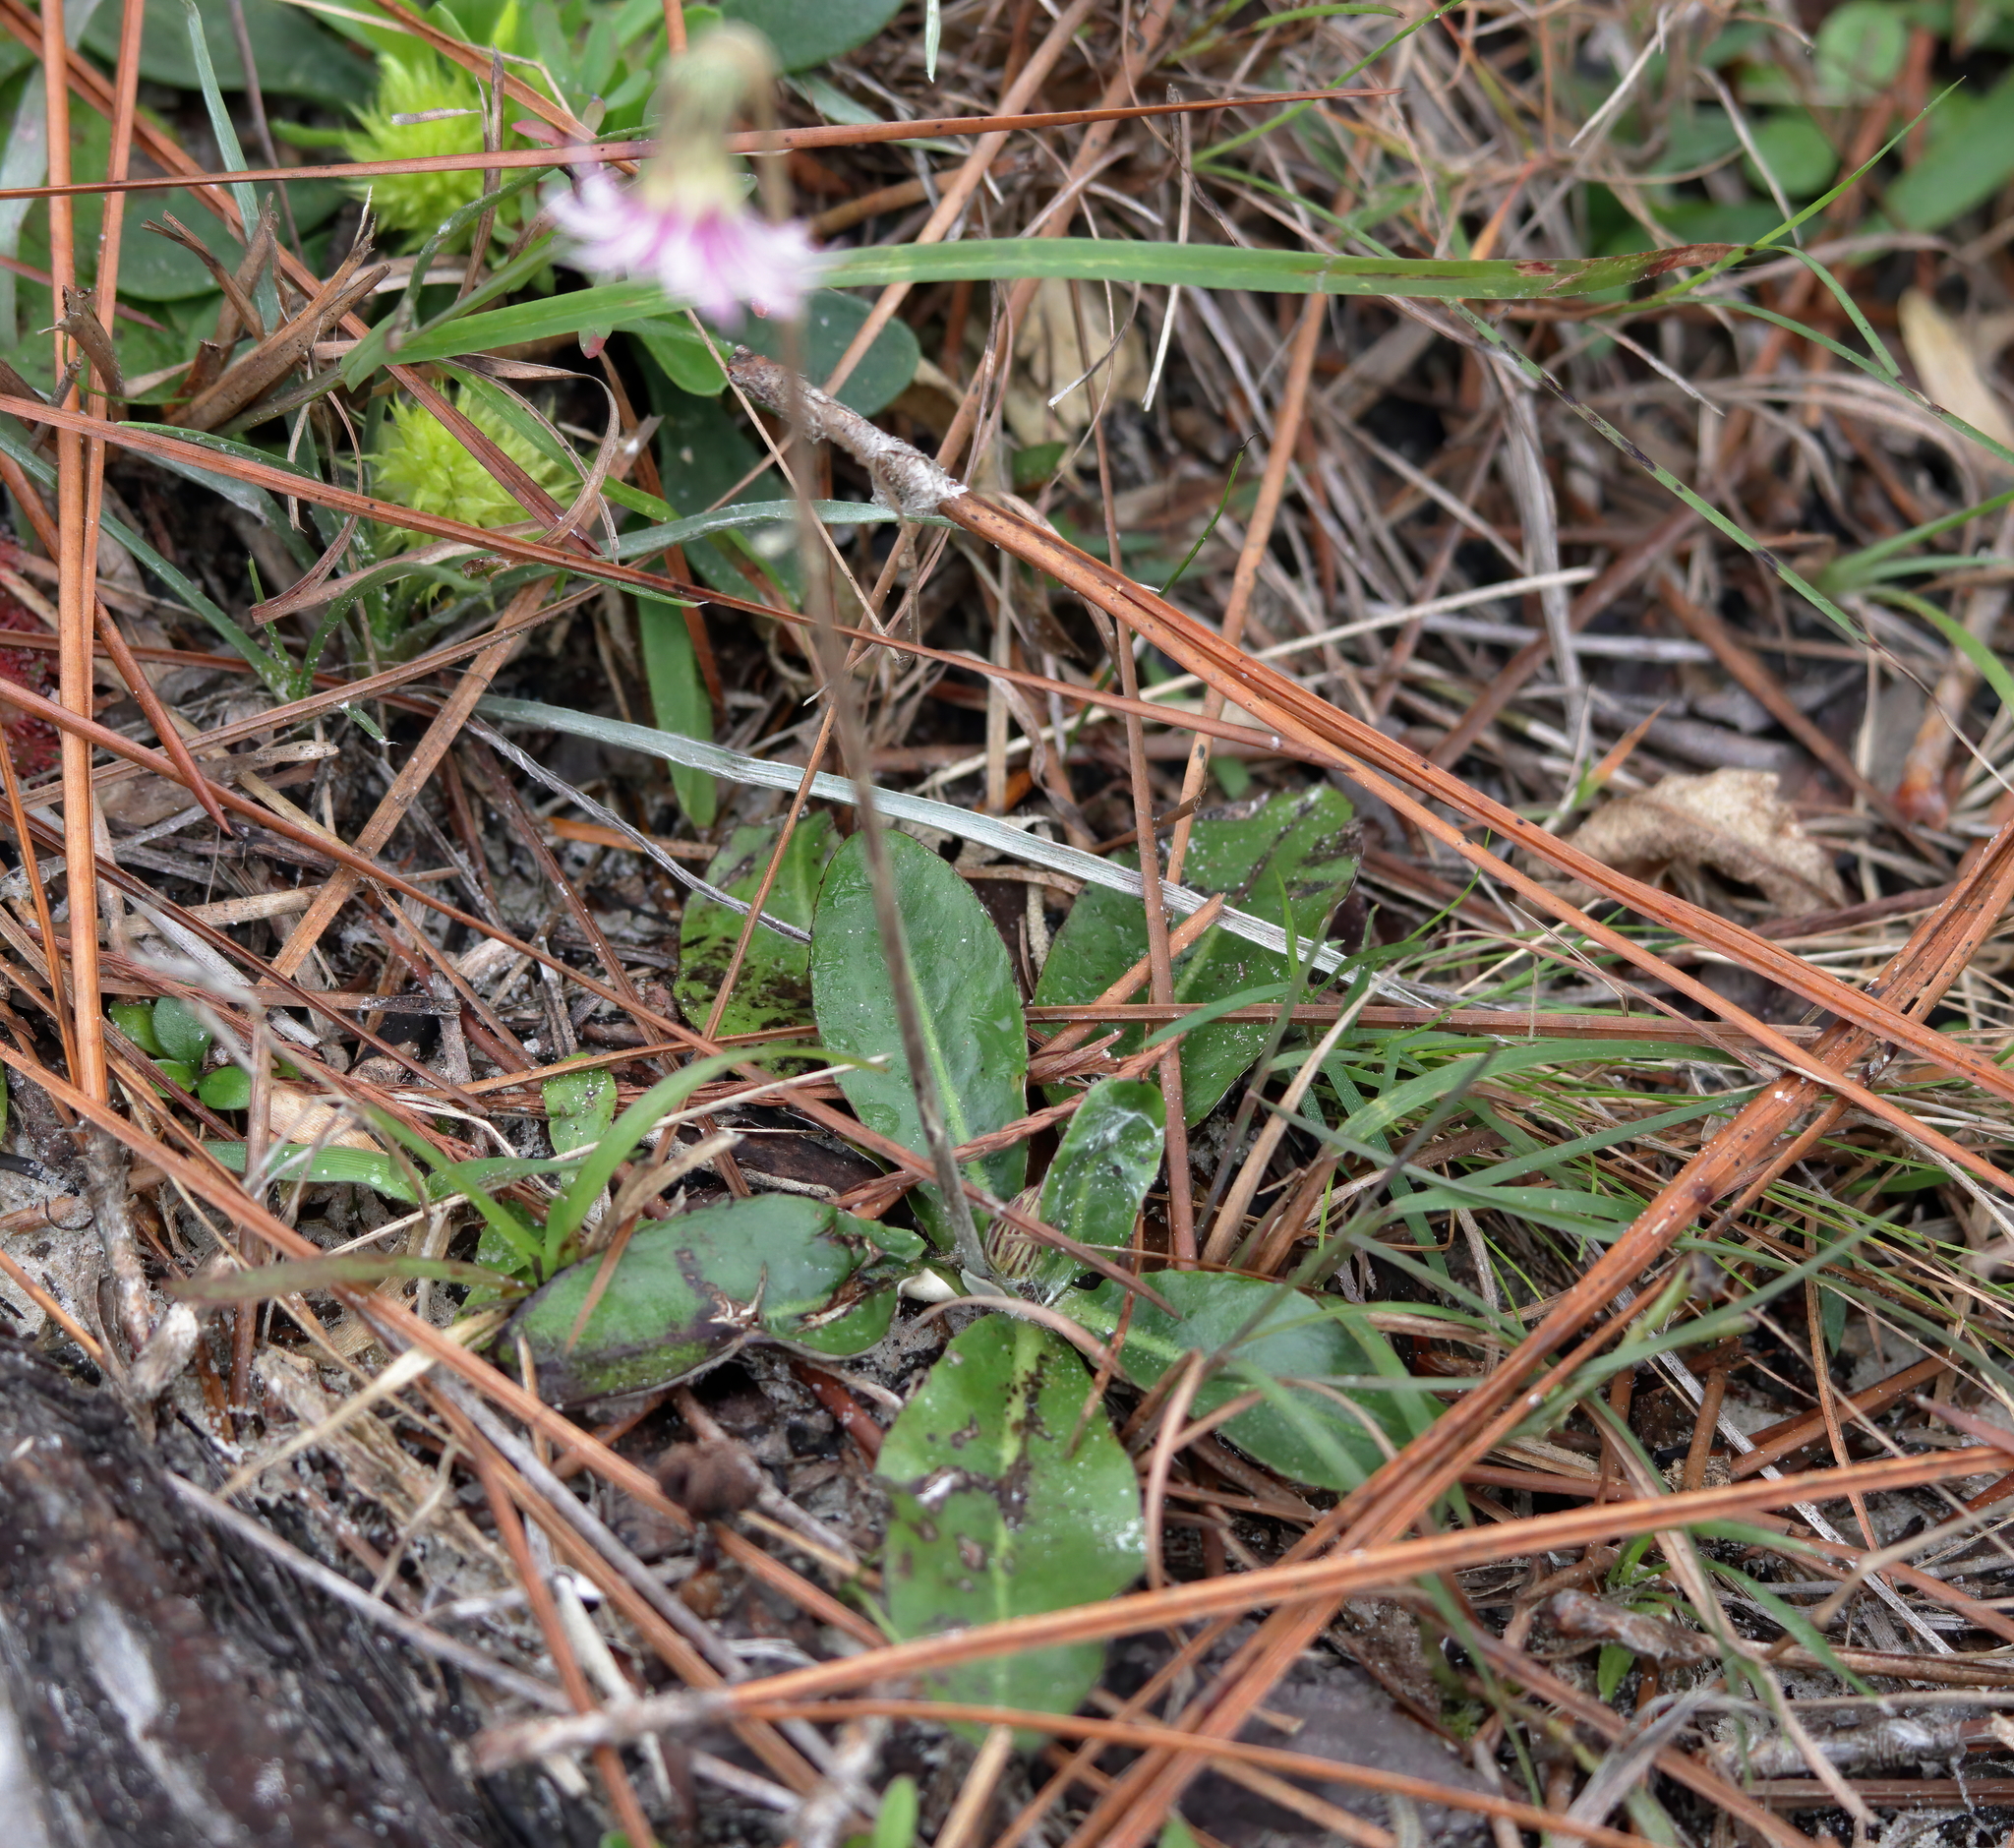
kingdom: Plantae
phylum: Tracheophyta
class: Magnoliopsida
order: Asterales
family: Asteraceae
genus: Chaptalia
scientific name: Chaptalia tomentosa
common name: Woolly sunbonnet
